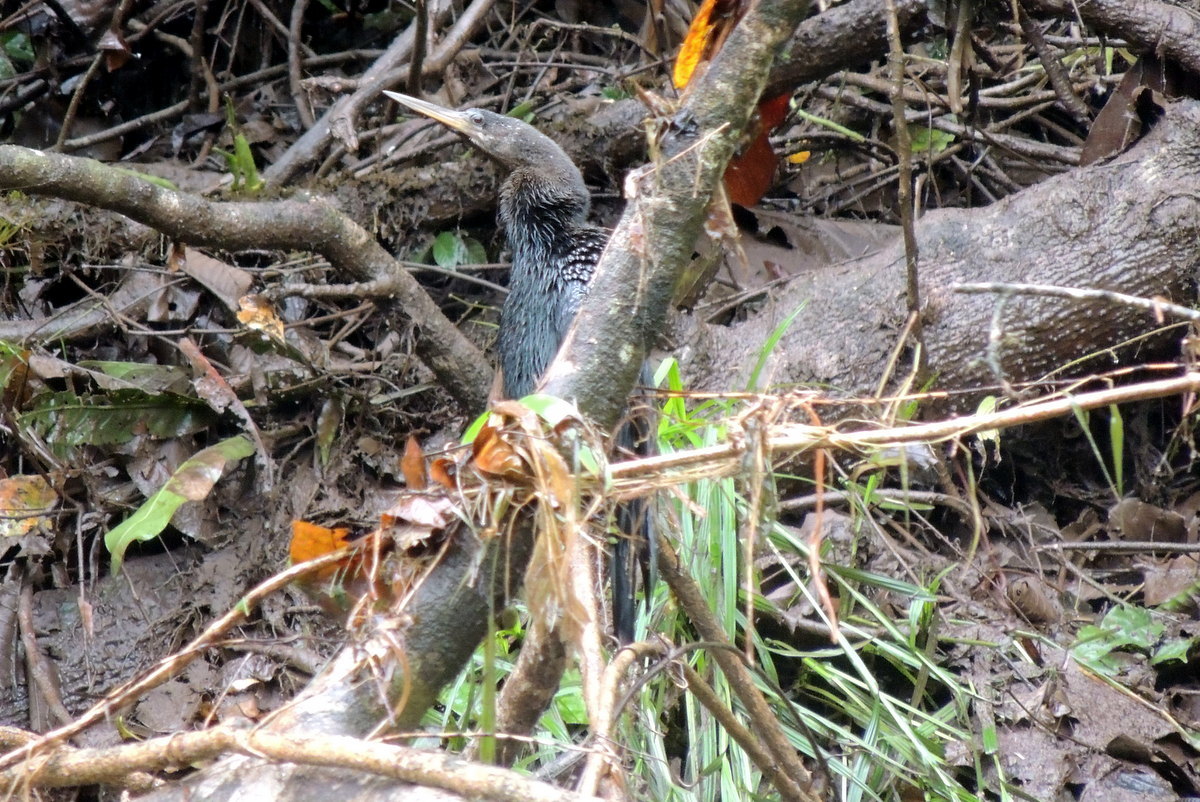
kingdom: Animalia
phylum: Chordata
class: Aves
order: Suliformes
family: Anhingidae
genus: Anhinga
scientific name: Anhinga anhinga
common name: Anhinga
